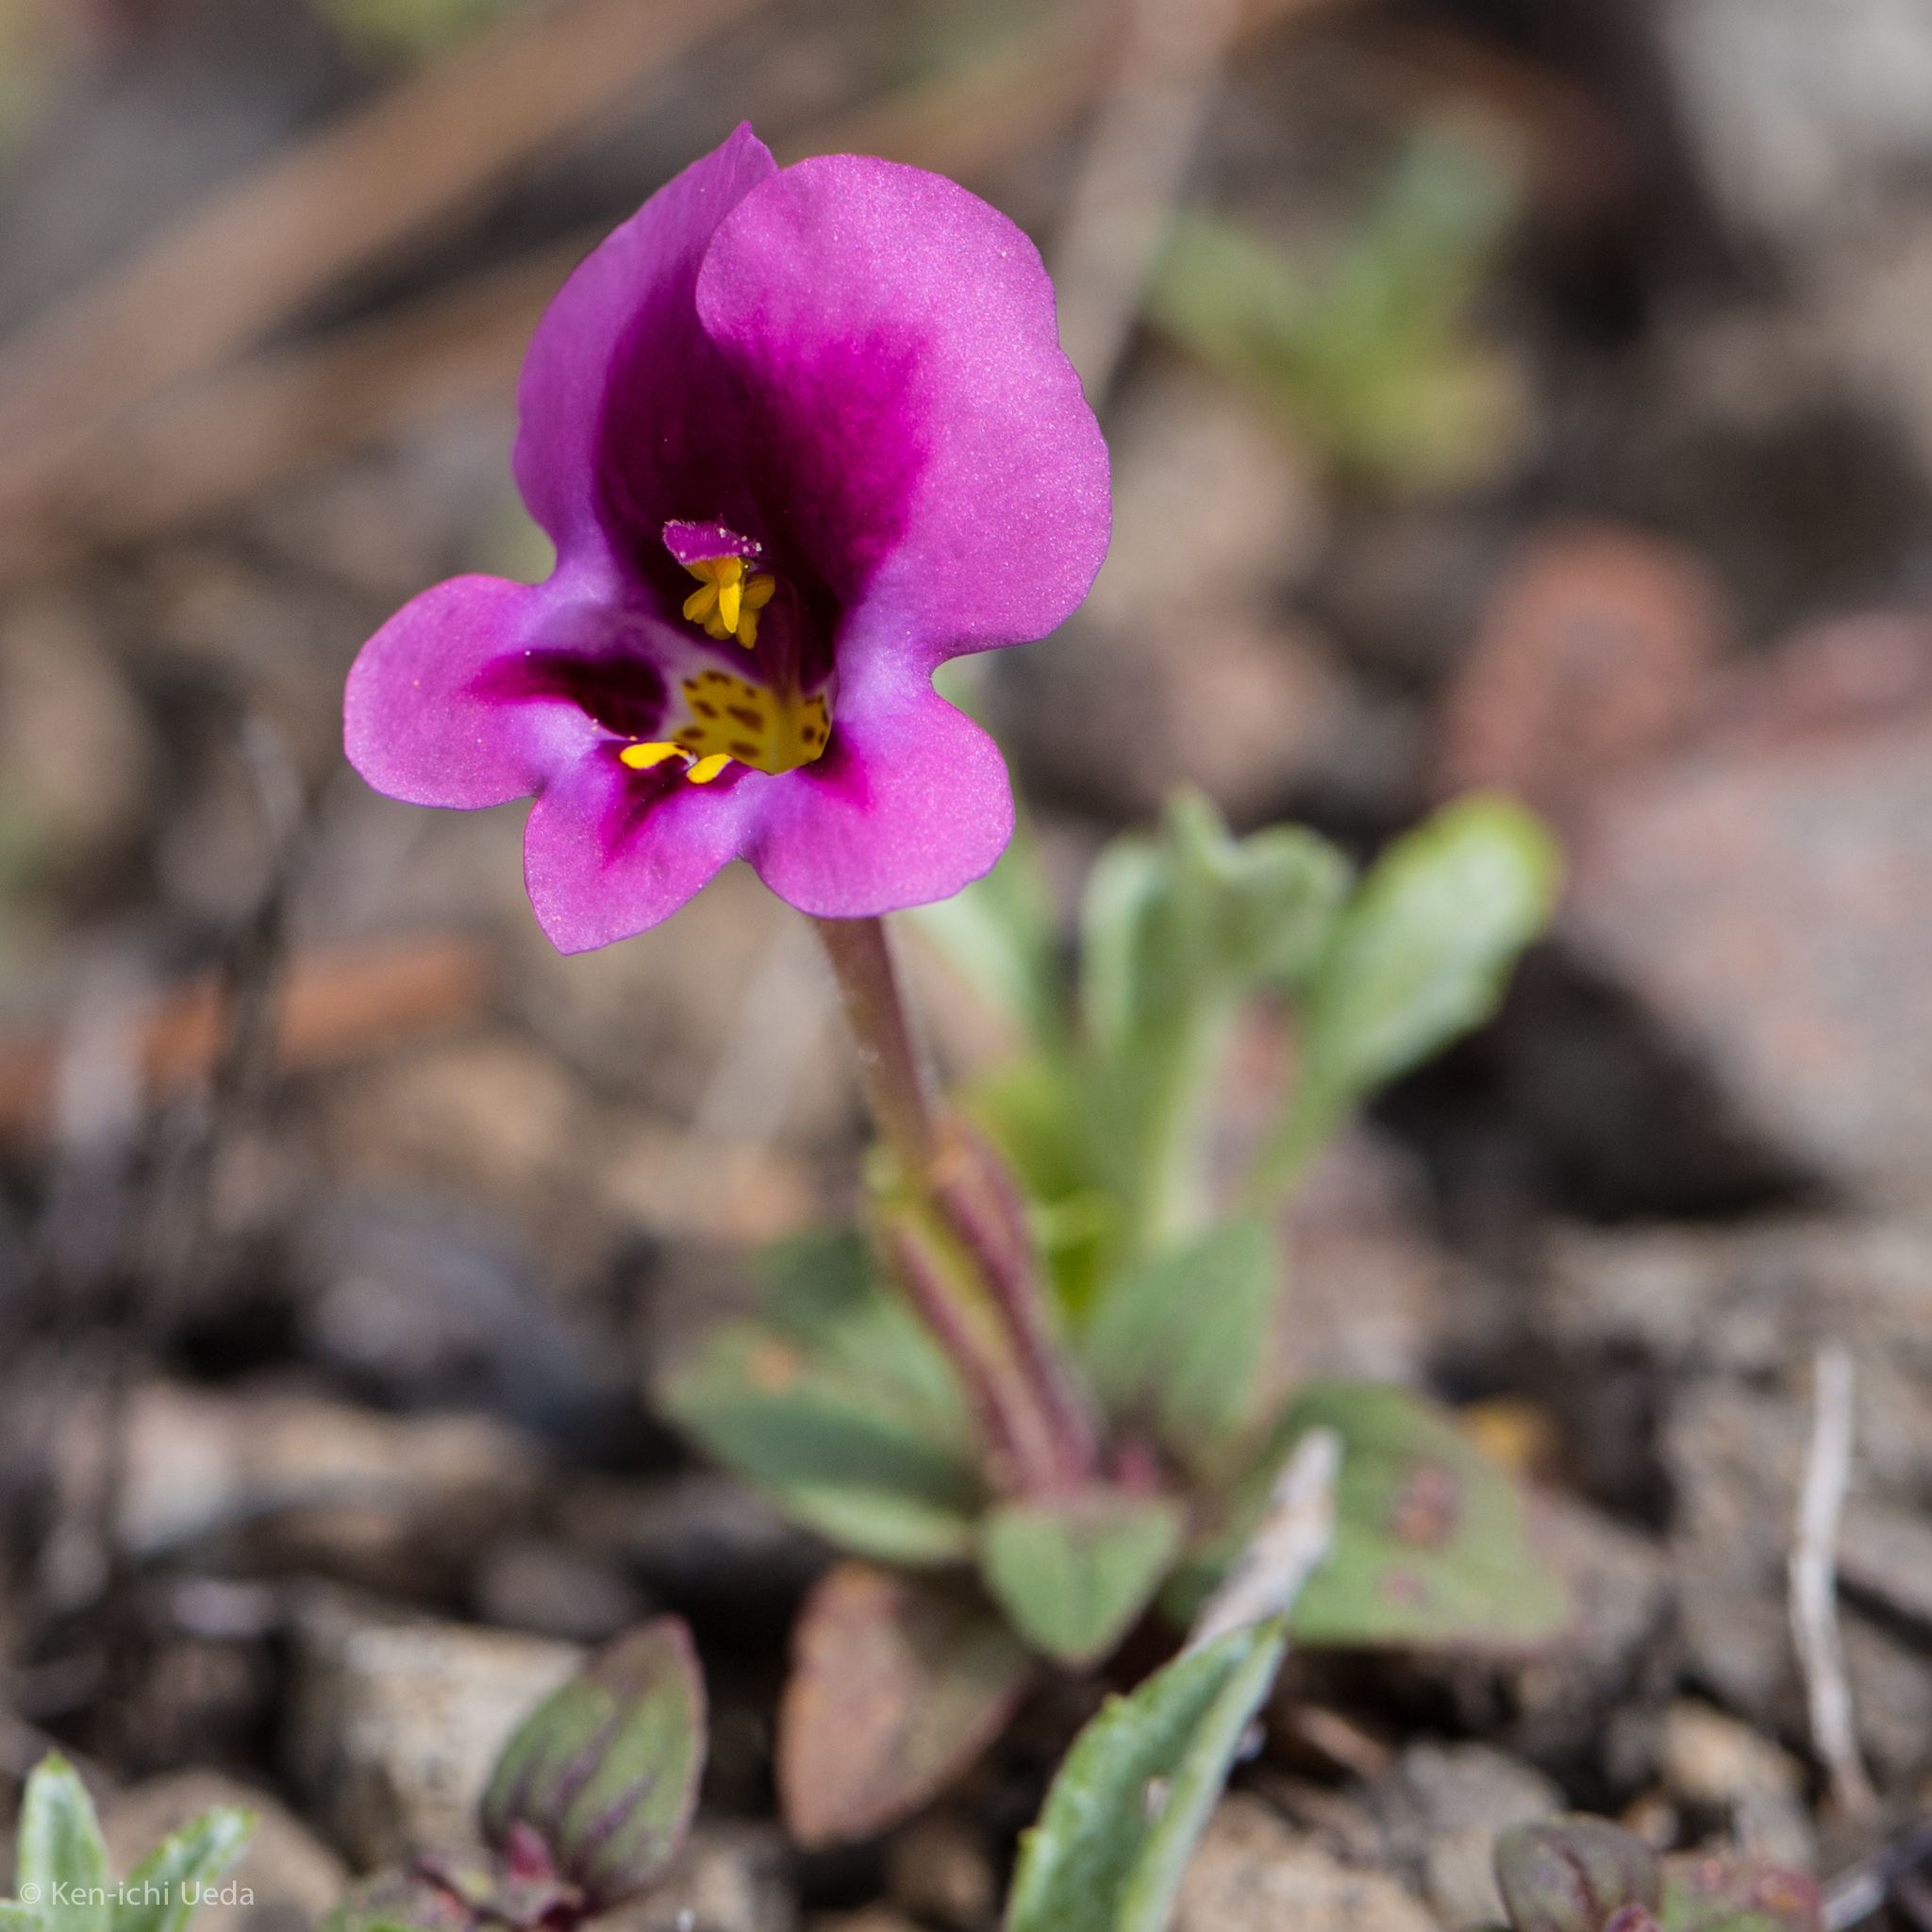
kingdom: Plantae
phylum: Tracheophyta
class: Magnoliopsida
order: Lamiales
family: Phrymaceae
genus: Diplacus
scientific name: Diplacus kelloggii
